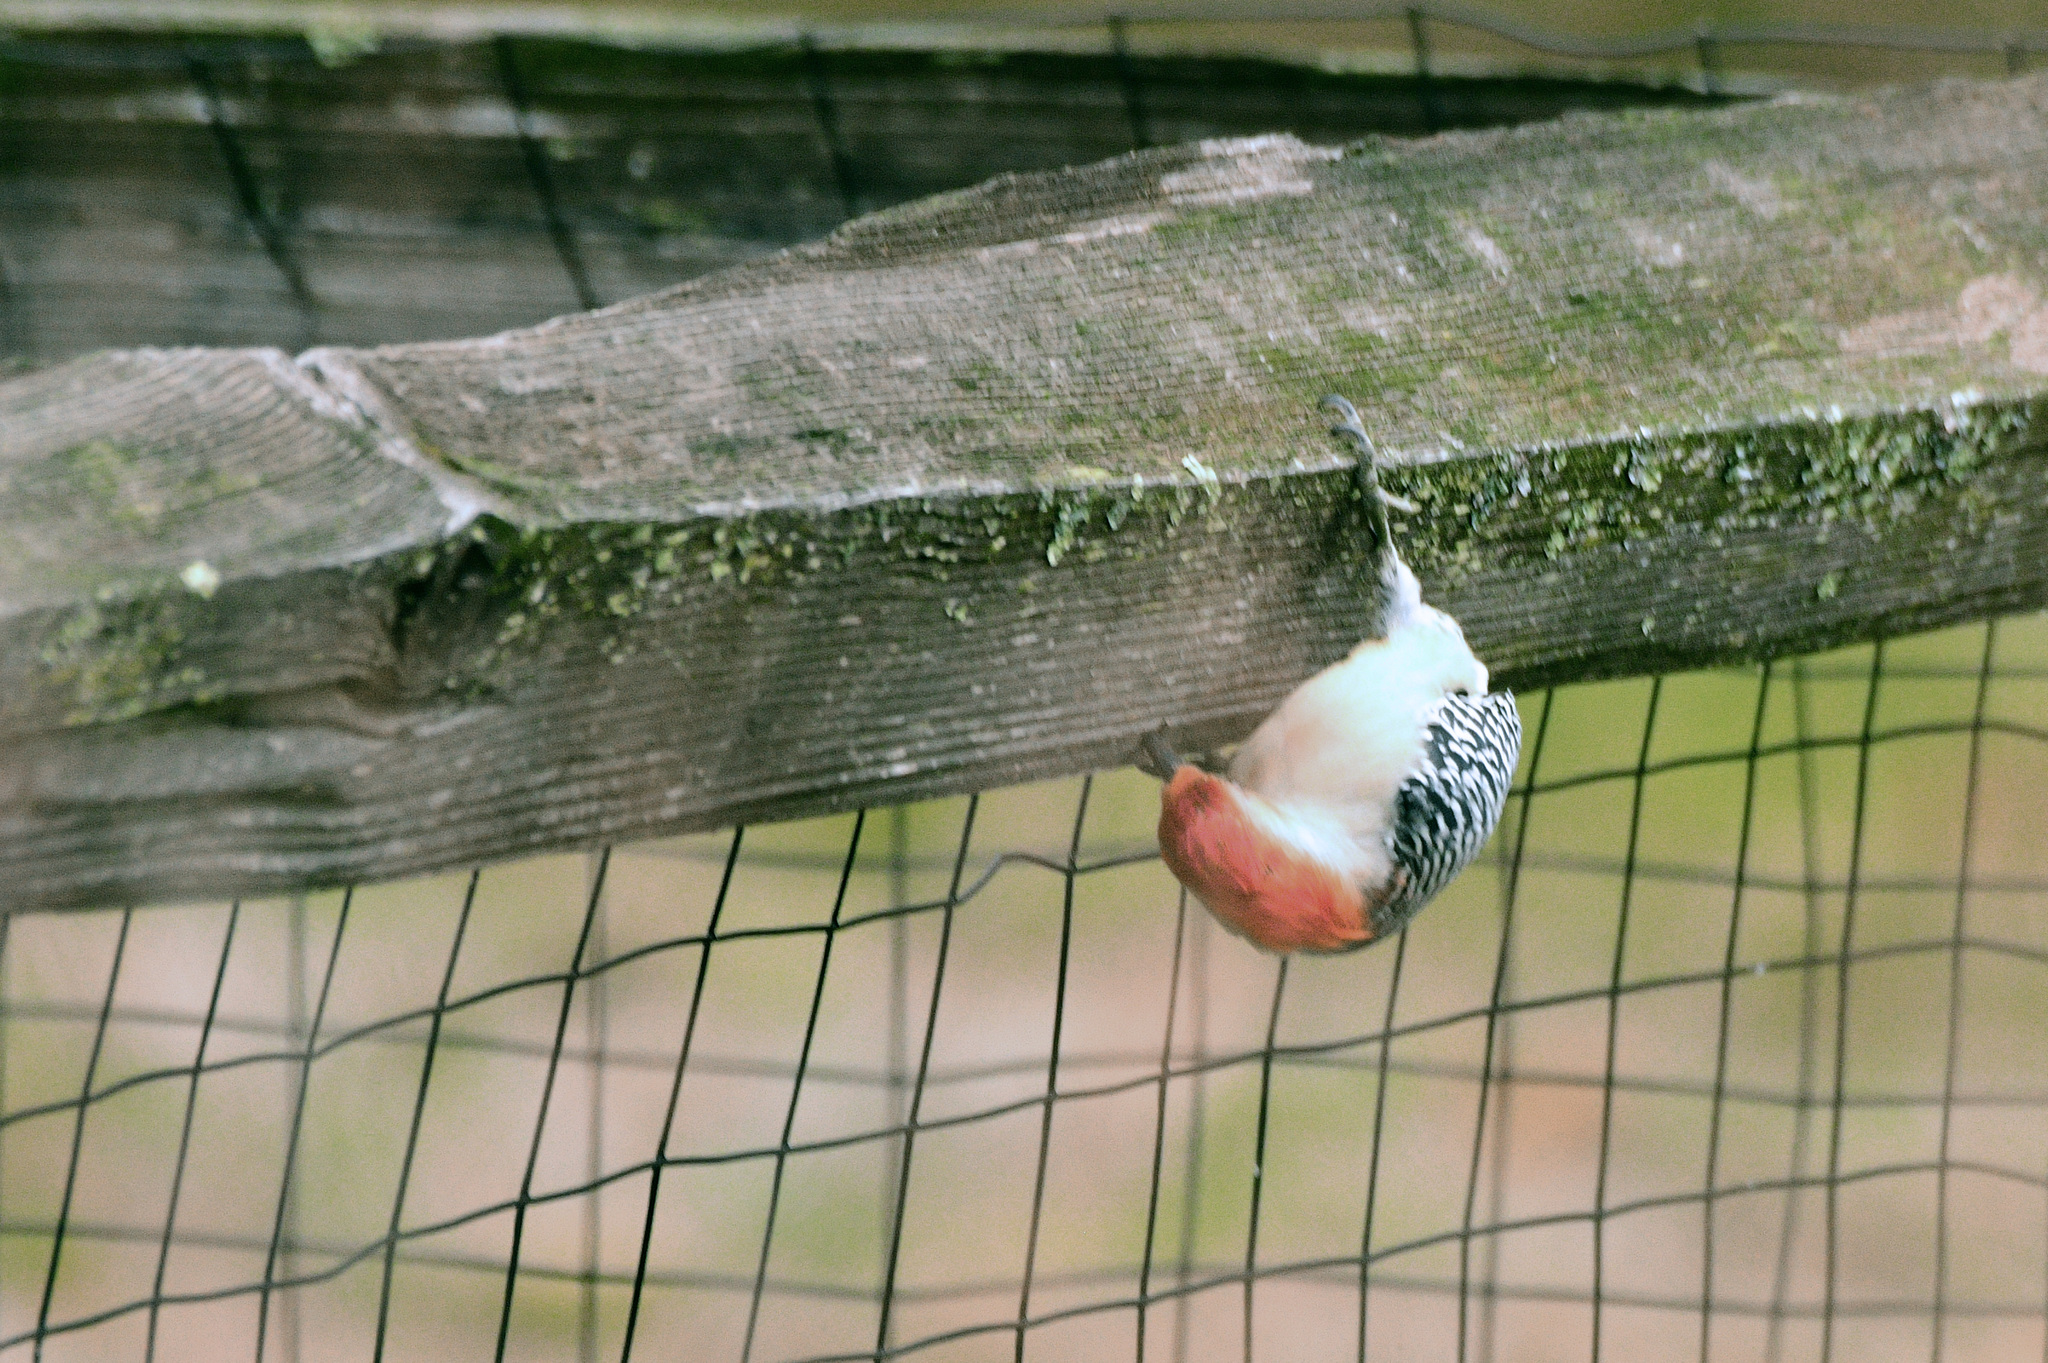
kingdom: Animalia
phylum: Chordata
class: Aves
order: Piciformes
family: Picidae
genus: Melanerpes
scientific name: Melanerpes carolinus
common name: Red-bellied woodpecker
